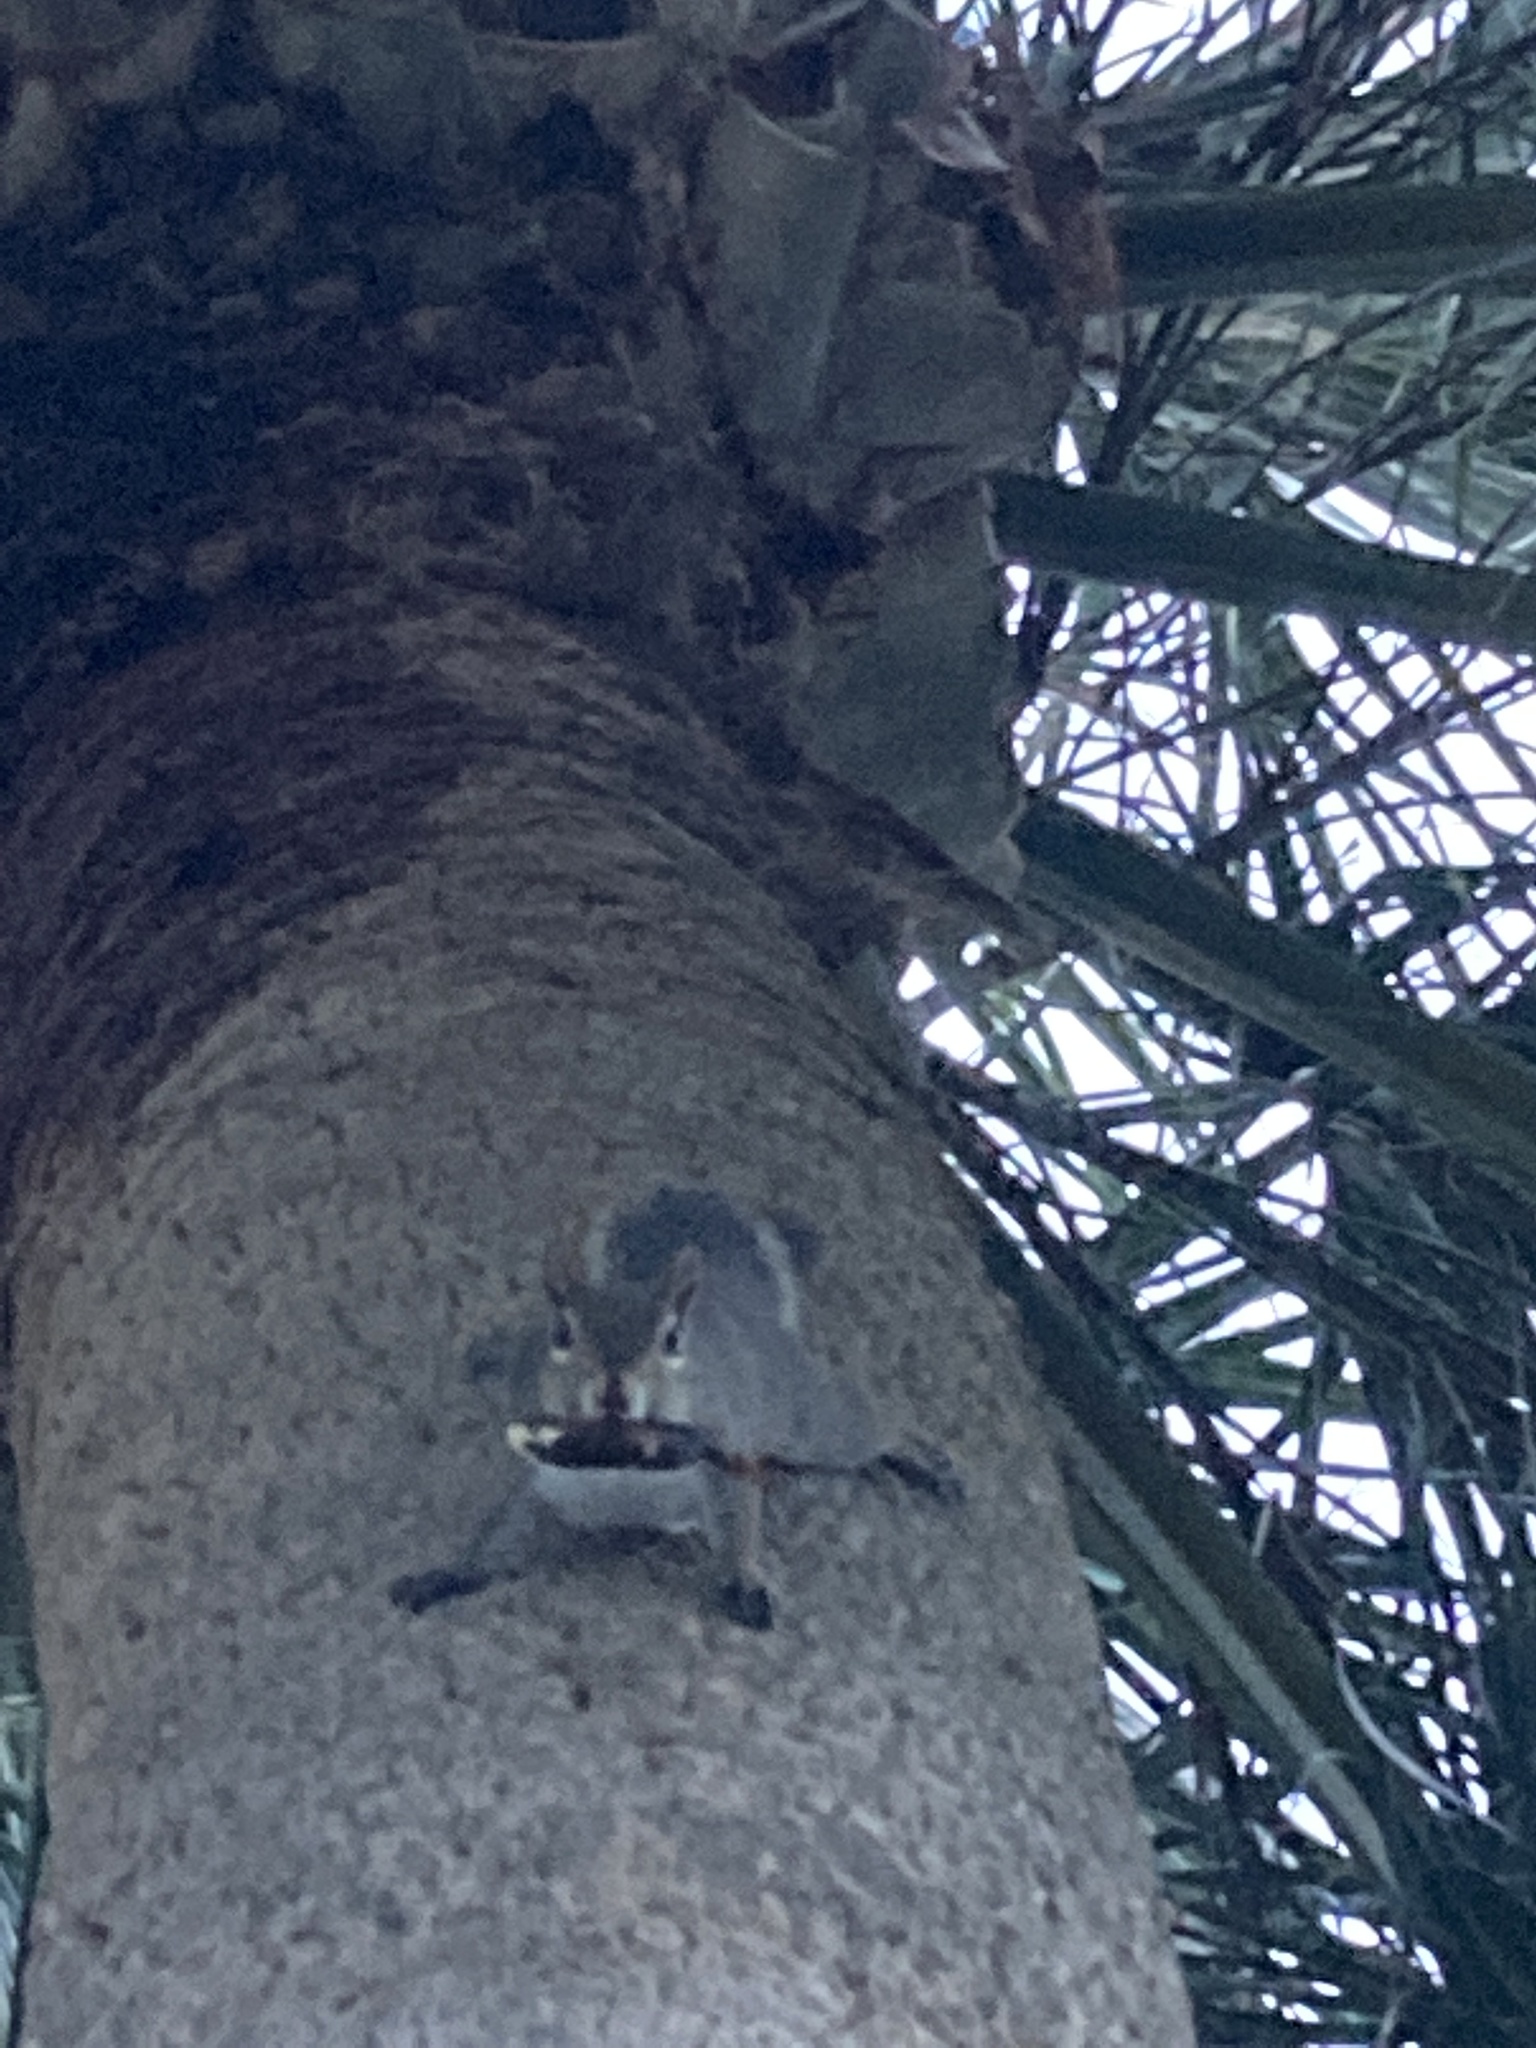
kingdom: Animalia
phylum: Chordata
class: Mammalia
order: Rodentia
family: Sciuridae
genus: Sciurus
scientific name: Sciurus carolinensis
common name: Eastern gray squirrel
